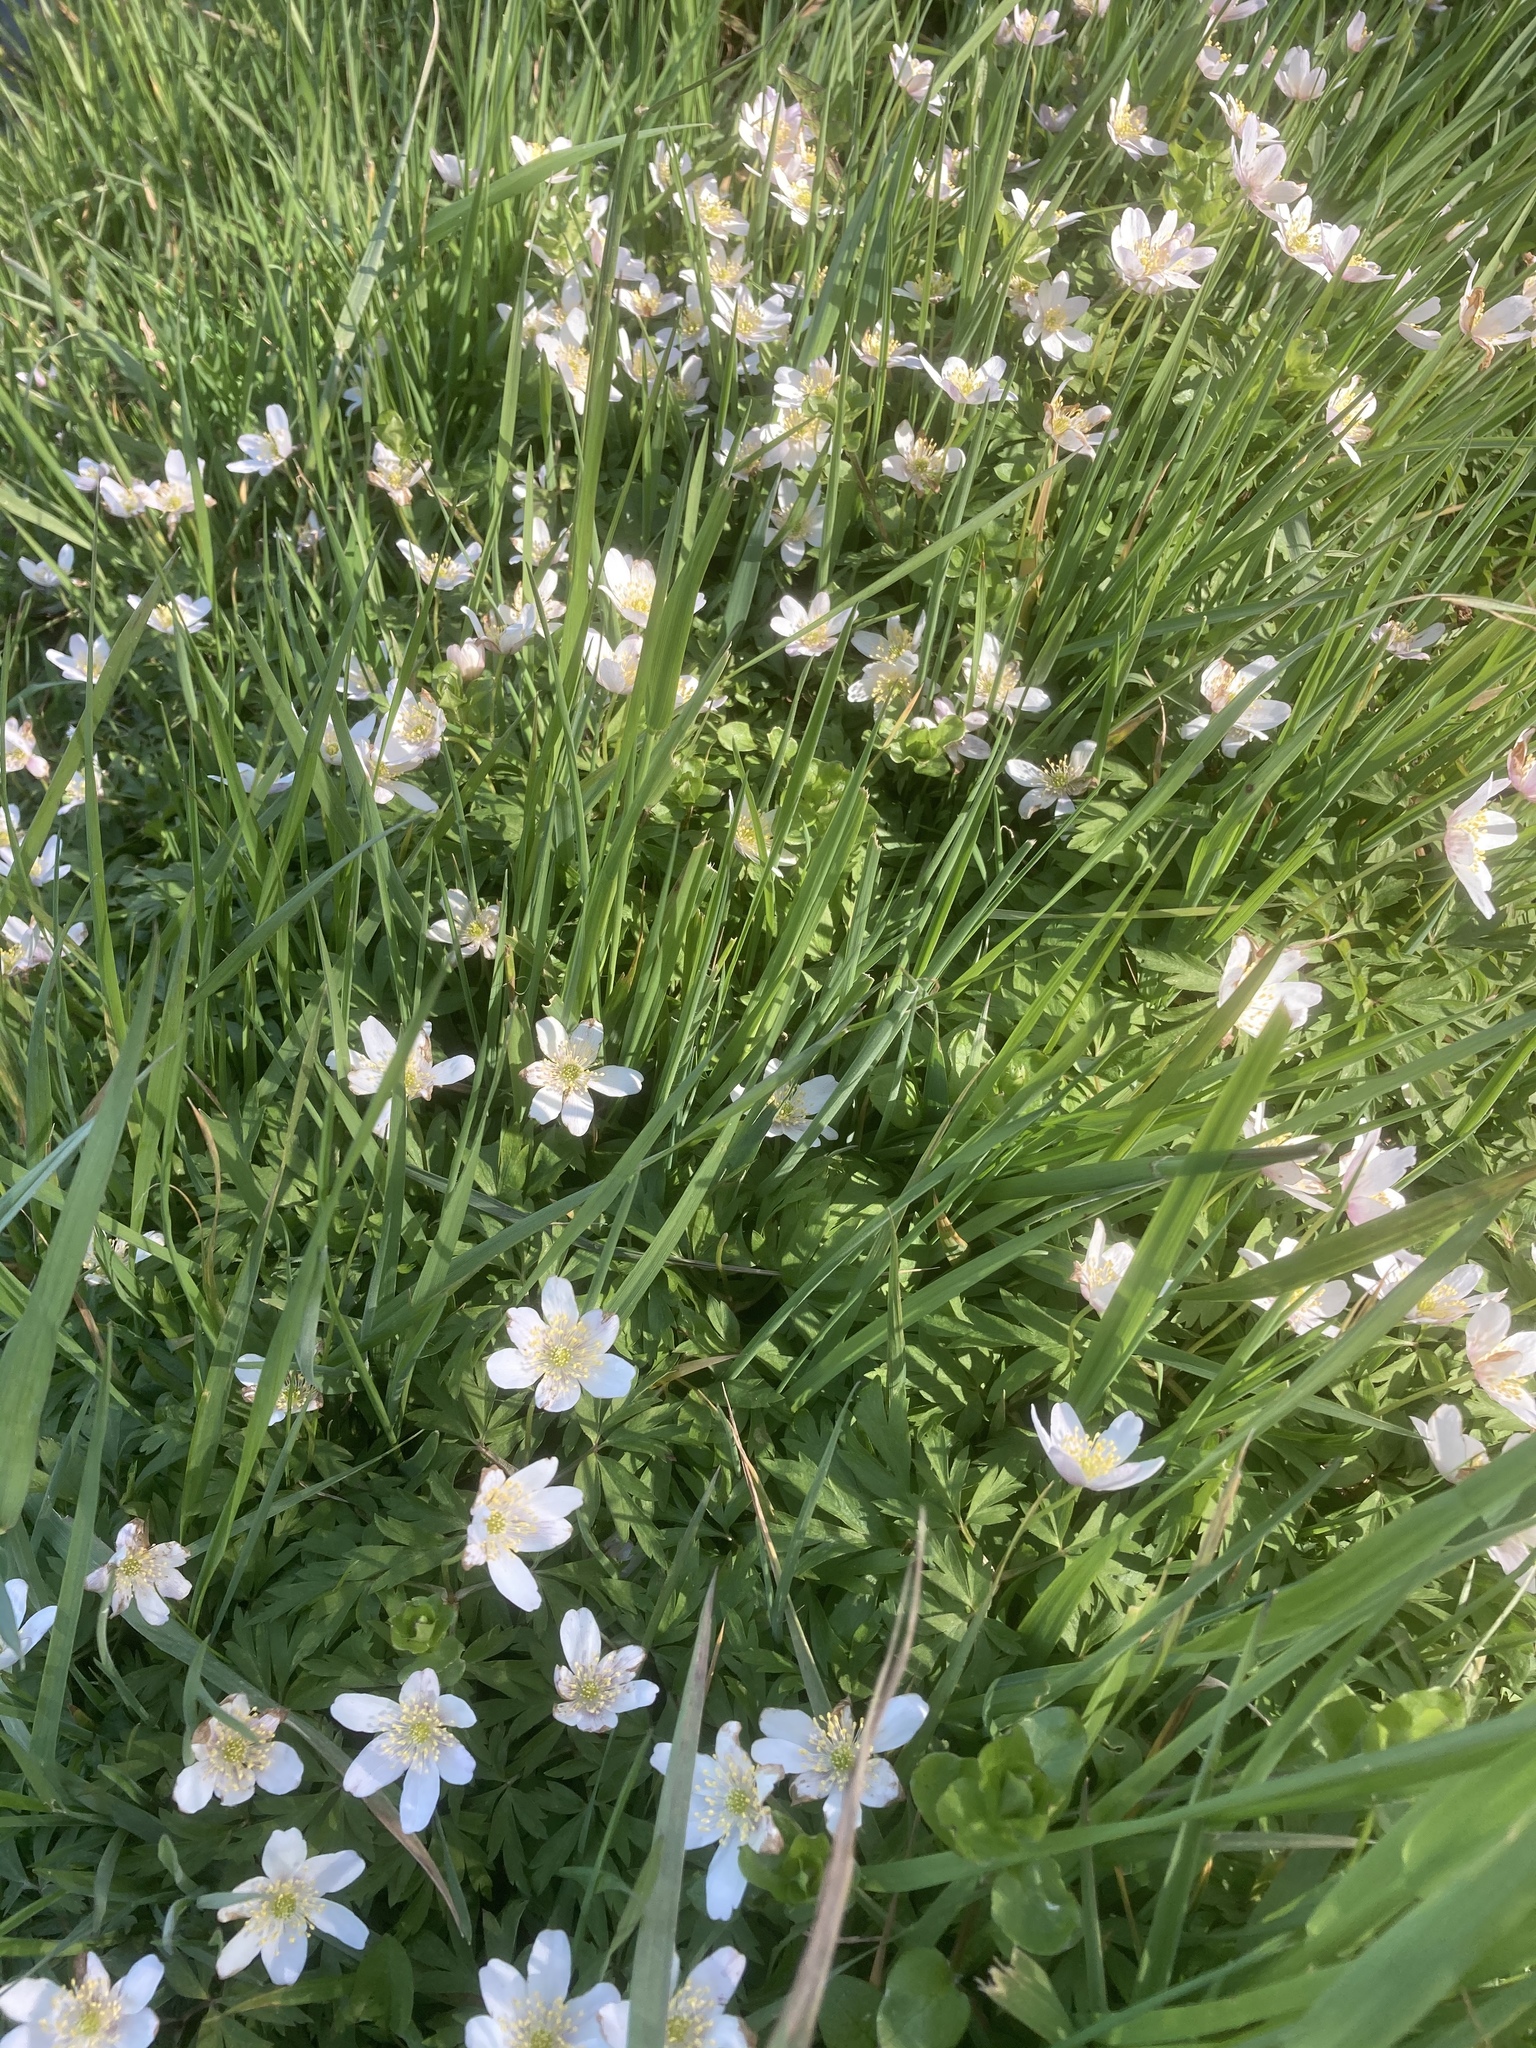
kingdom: Plantae
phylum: Tracheophyta
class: Magnoliopsida
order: Ranunculales
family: Ranunculaceae
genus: Anemone
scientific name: Anemone nemorosa
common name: Wood anemone
